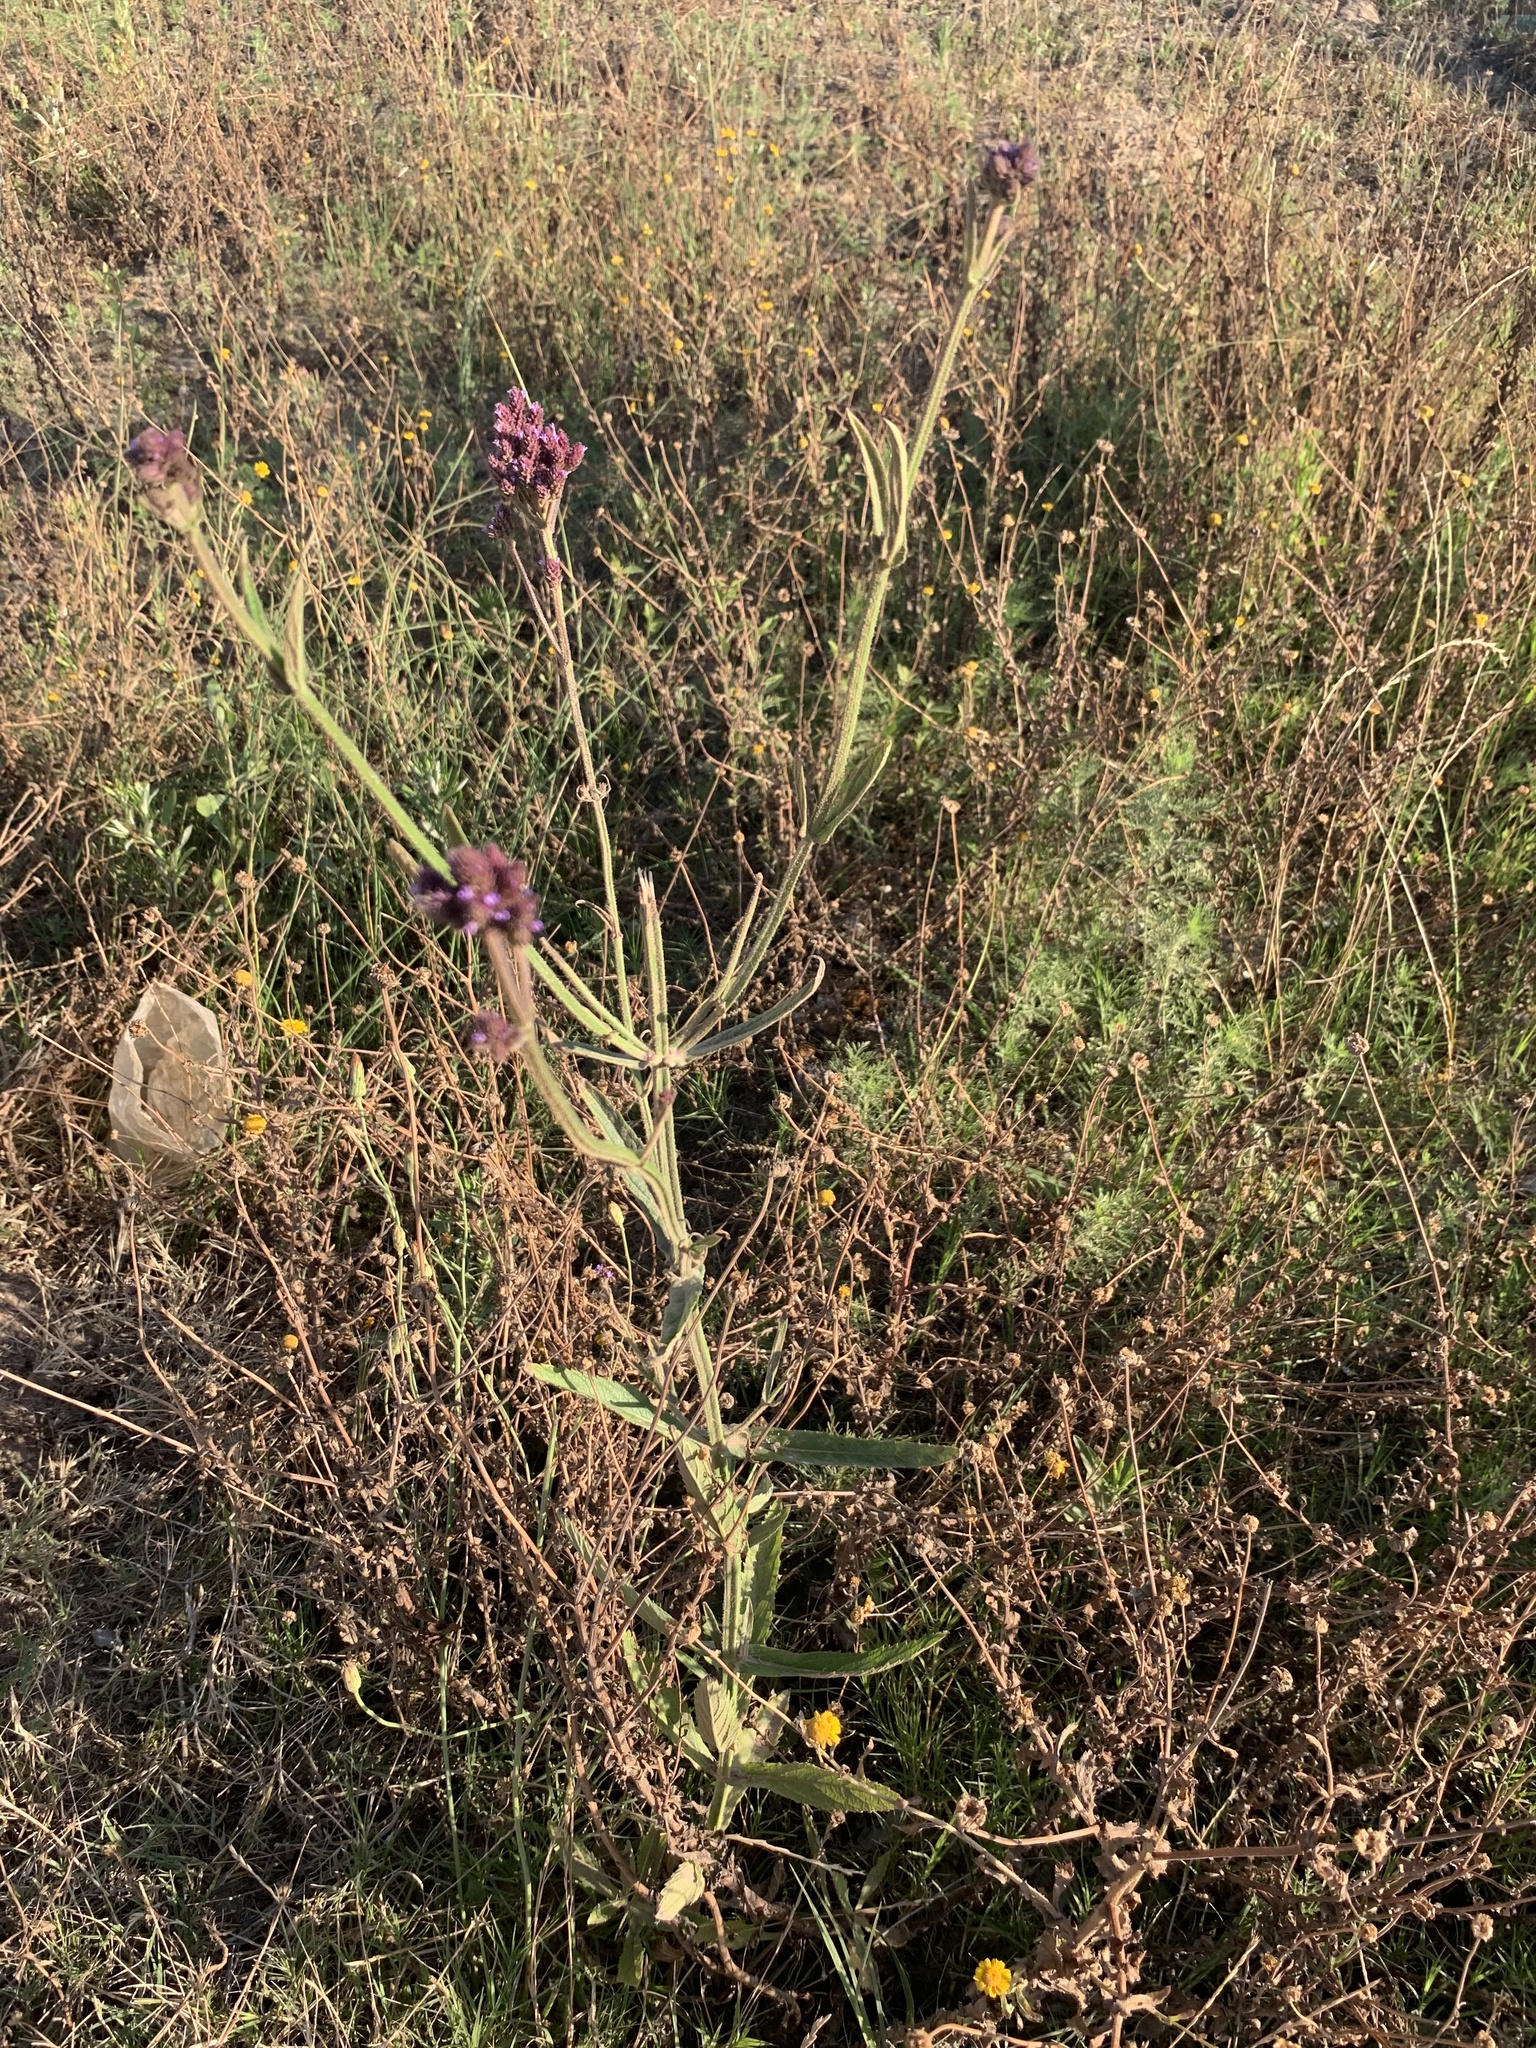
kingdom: Plantae
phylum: Tracheophyta
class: Magnoliopsida
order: Lamiales
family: Verbenaceae
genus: Verbena
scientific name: Verbena bonariensis
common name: Purpletop vervain
